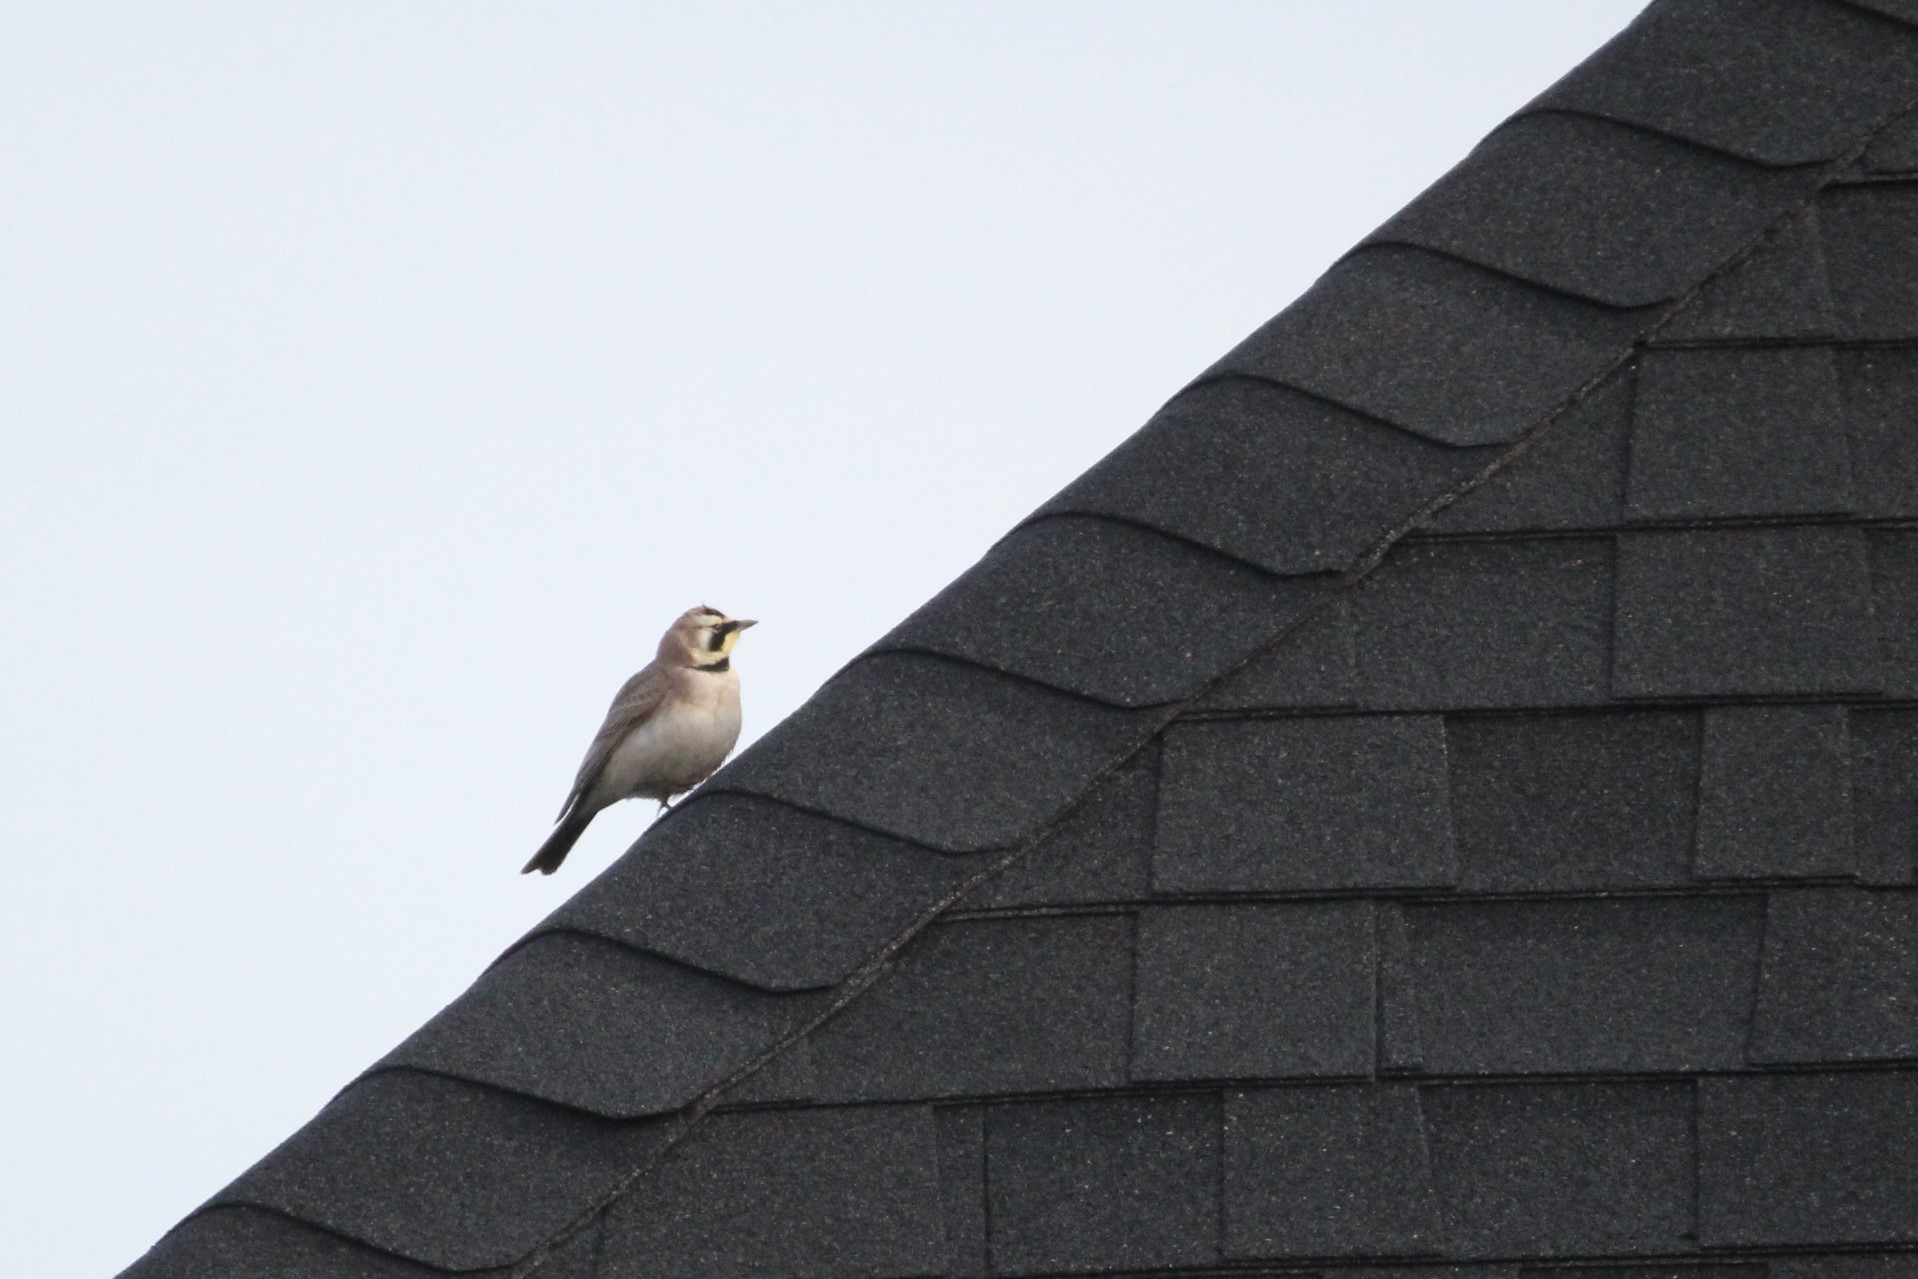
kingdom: Animalia
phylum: Chordata
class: Aves
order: Passeriformes
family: Alaudidae
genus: Eremophila
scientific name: Eremophila alpestris
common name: Horned lark
